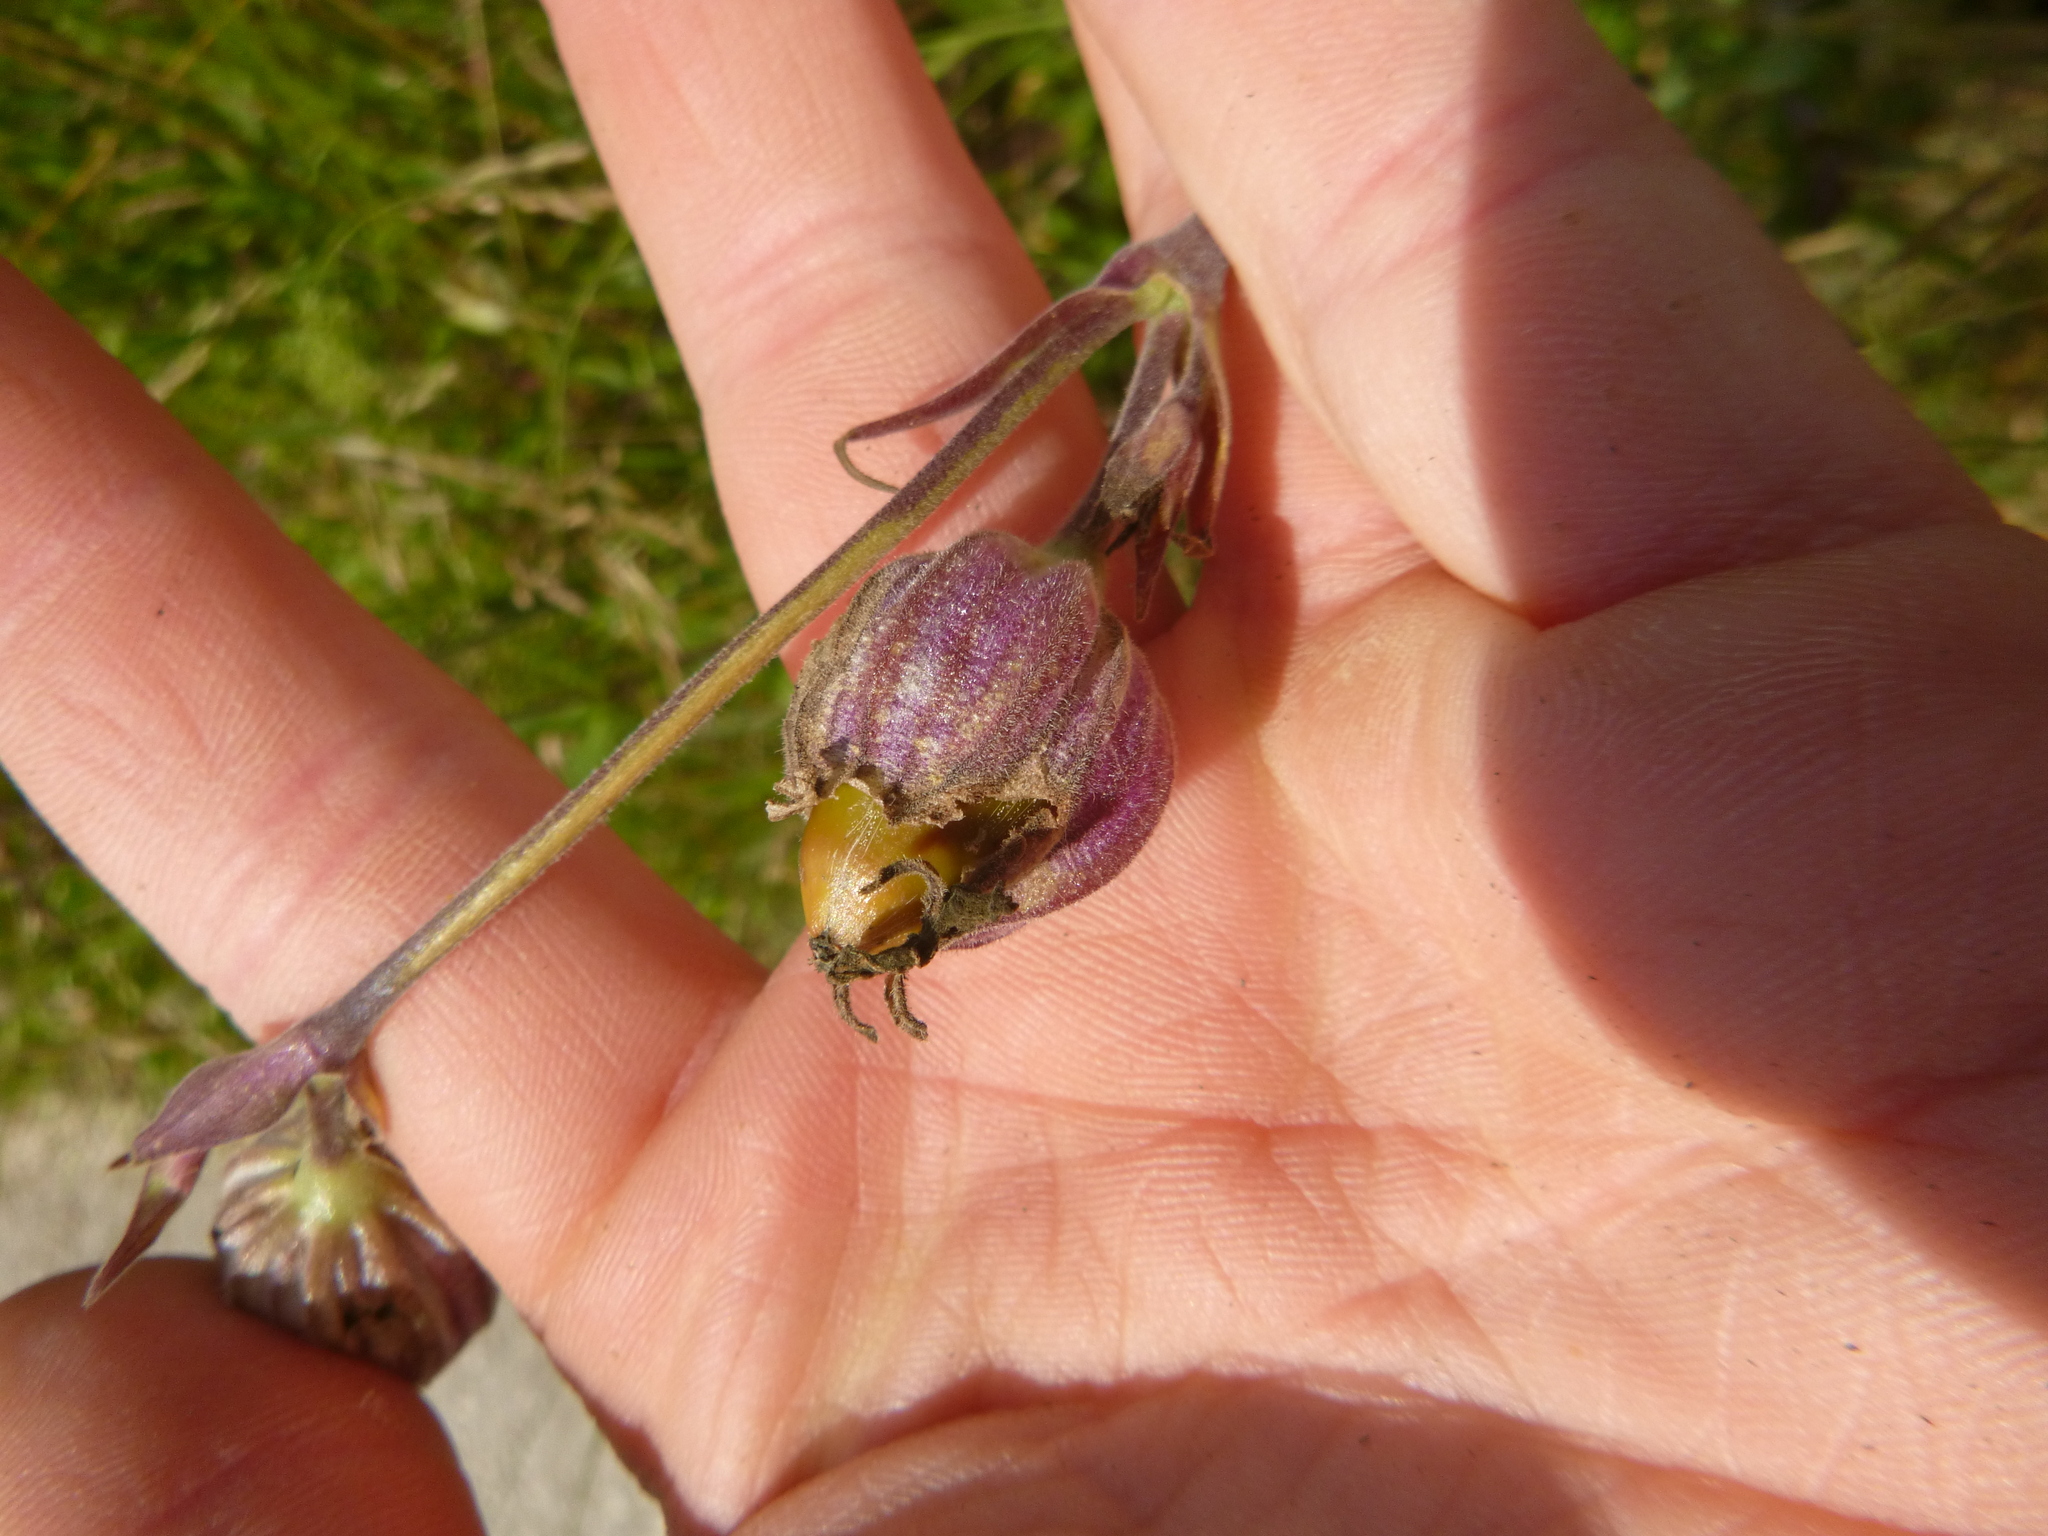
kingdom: Plantae
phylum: Tracheophyta
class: Magnoliopsida
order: Caryophyllales
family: Caryophyllaceae
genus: Silene
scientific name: Silene latifolia
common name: White campion
